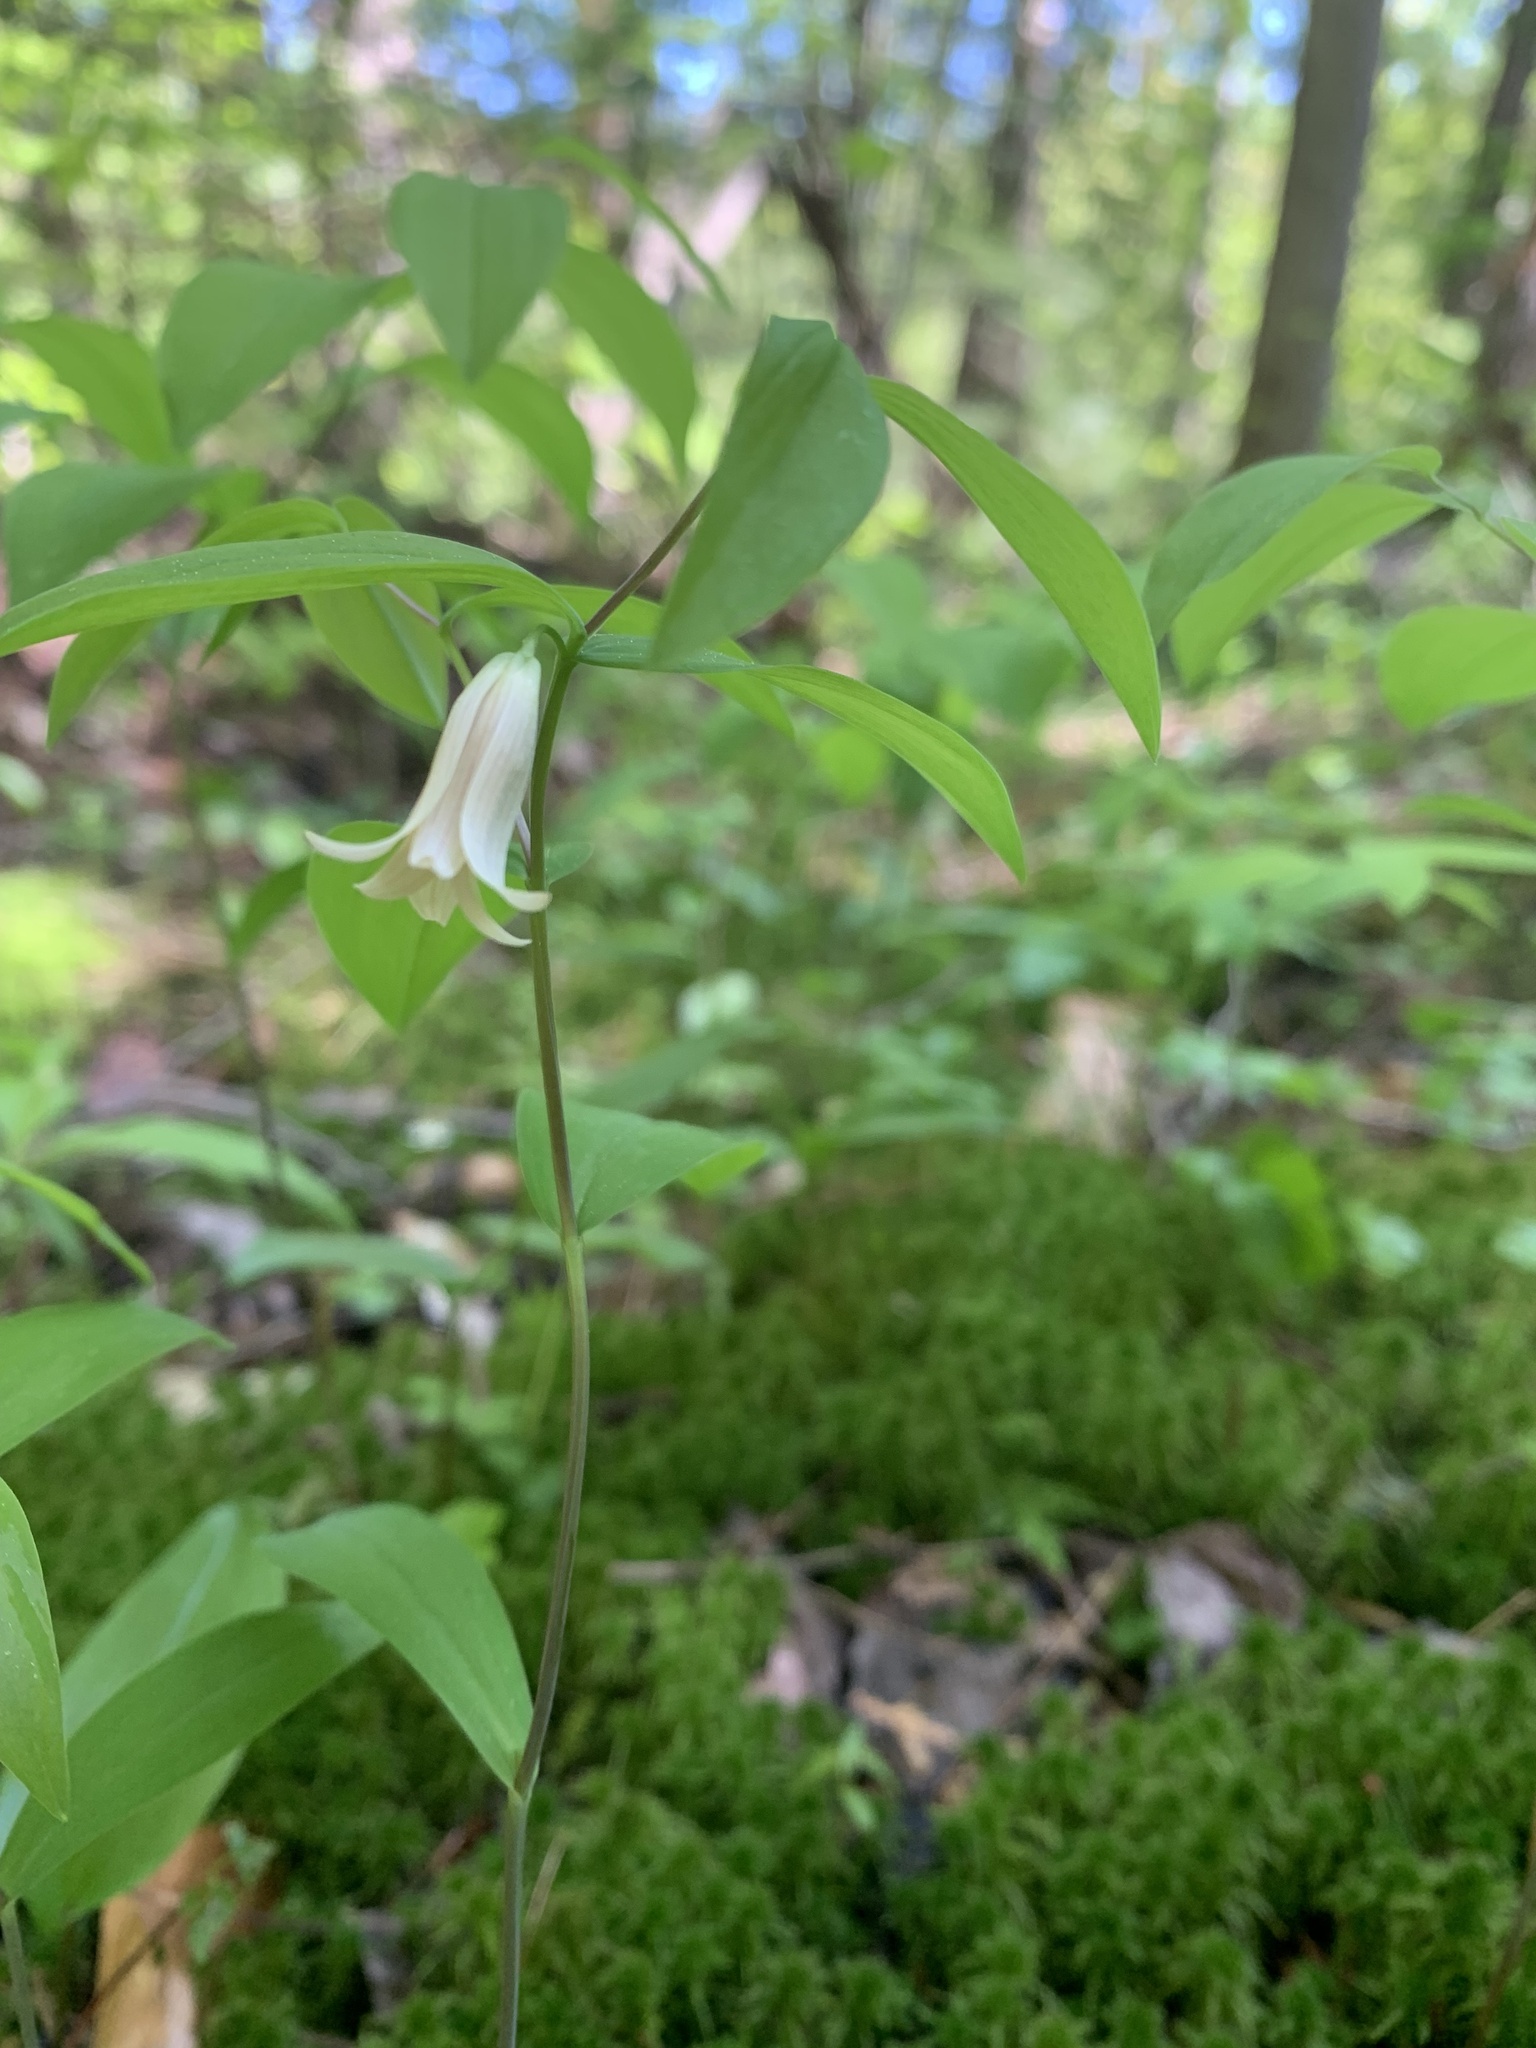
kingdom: Plantae
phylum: Tracheophyta
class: Liliopsida
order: Liliales
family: Colchicaceae
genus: Uvularia
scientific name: Uvularia sessilifolia
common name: Straw-lily
